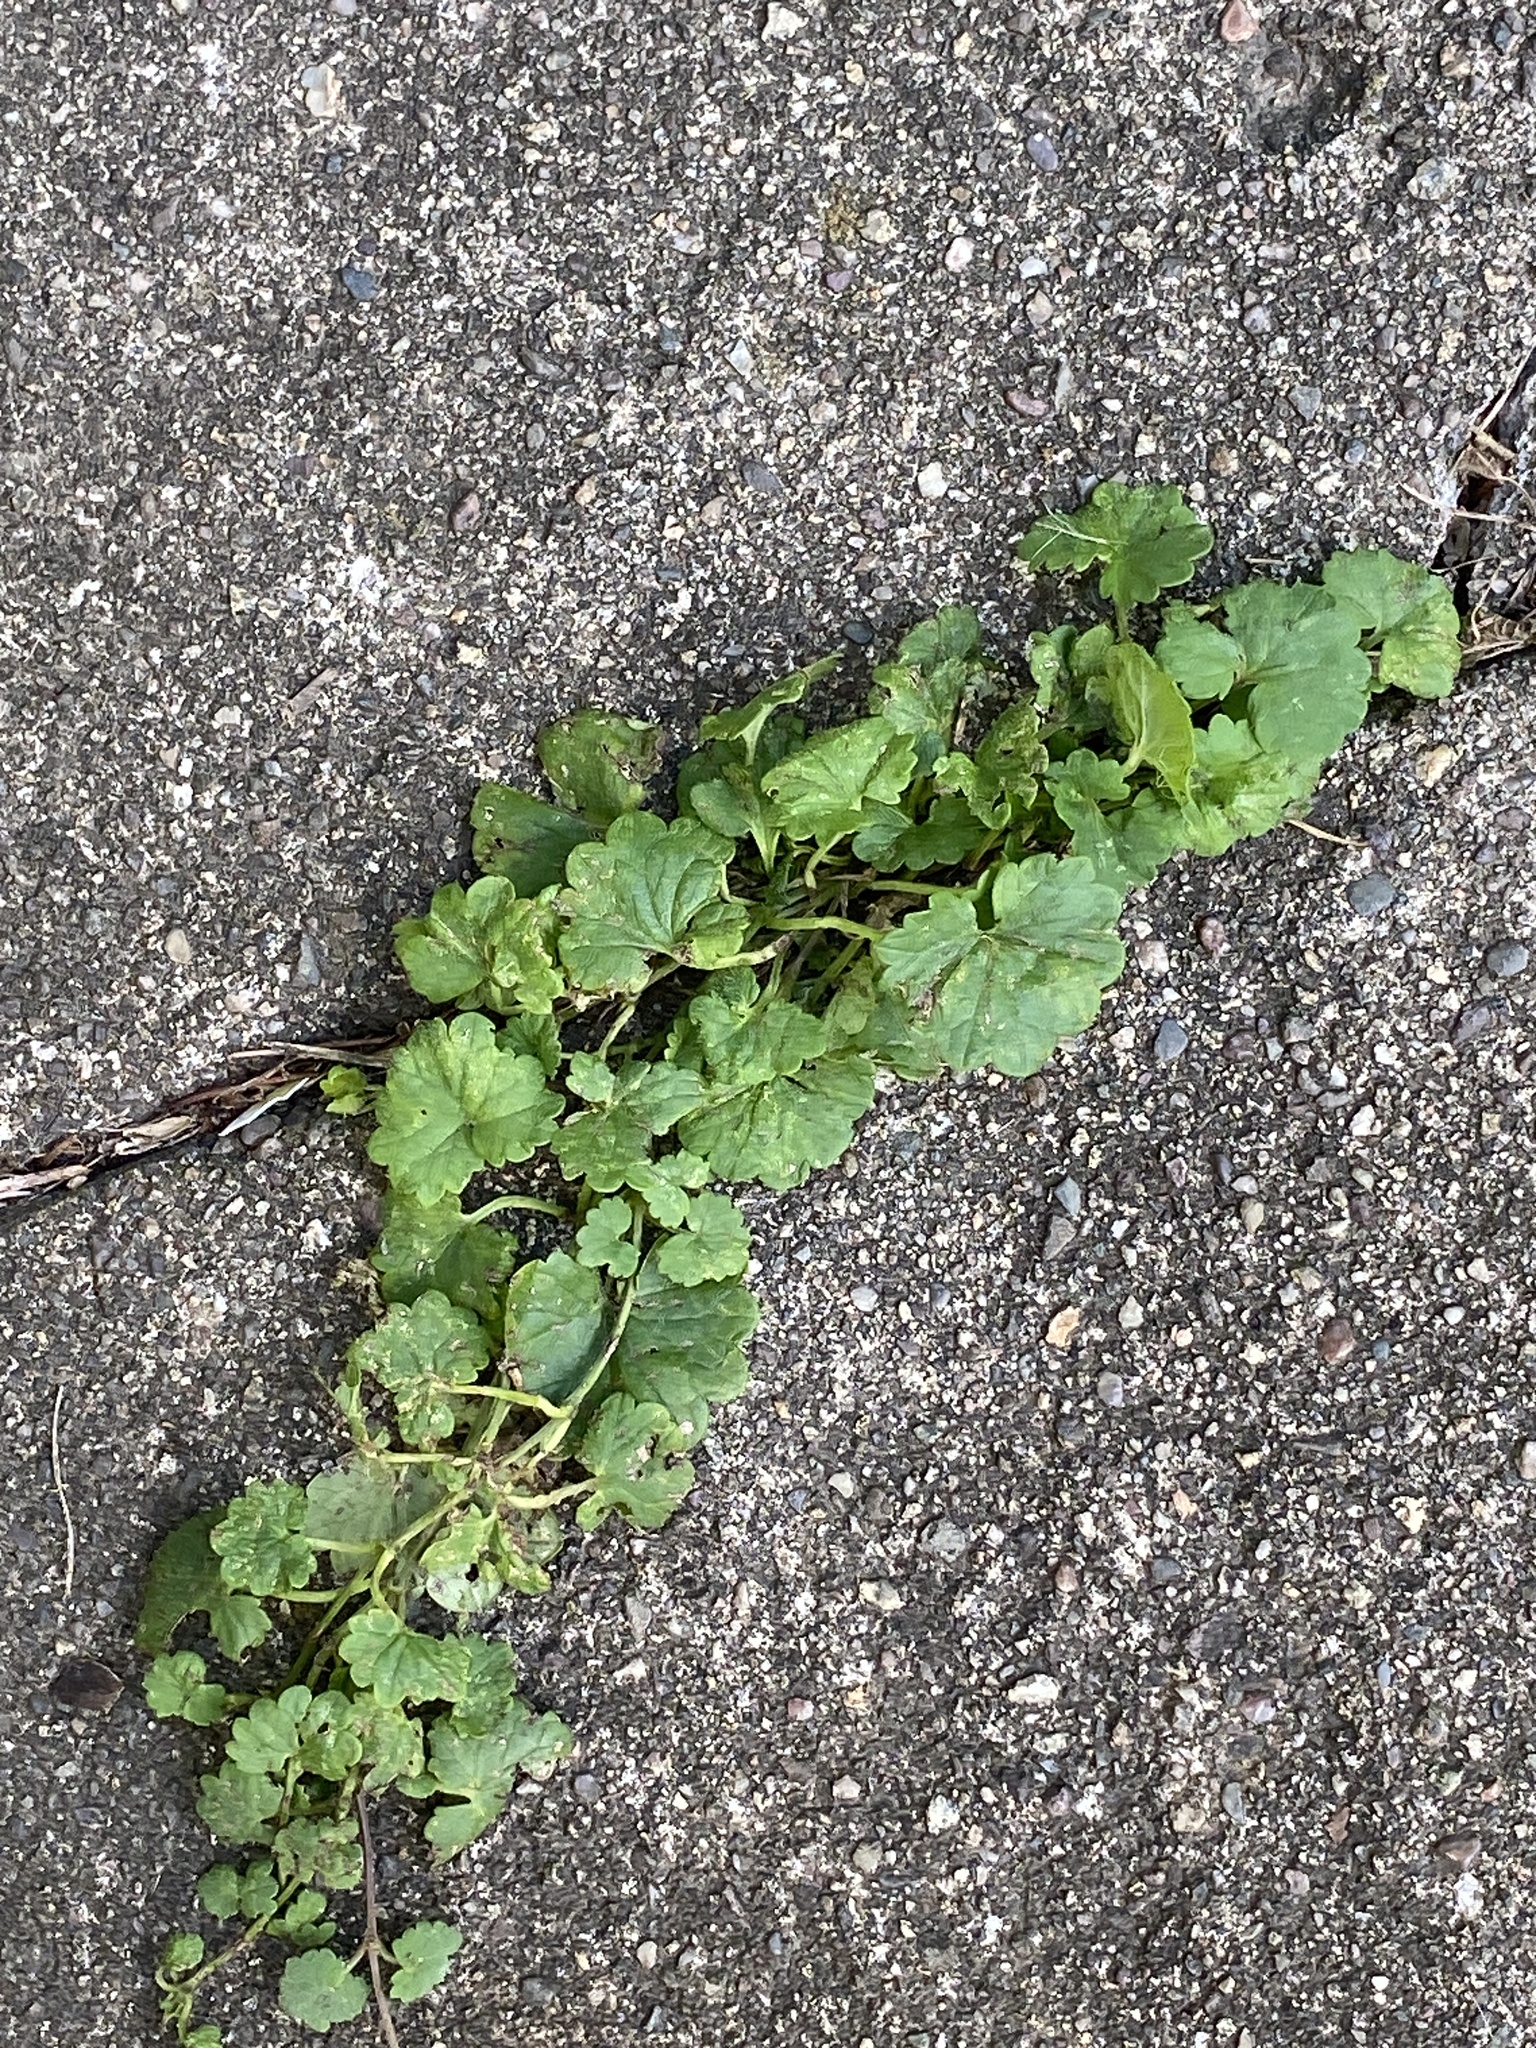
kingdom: Plantae
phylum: Tracheophyta
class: Magnoliopsida
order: Lamiales
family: Lamiaceae
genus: Glechoma
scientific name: Glechoma hederacea
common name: Ground ivy
